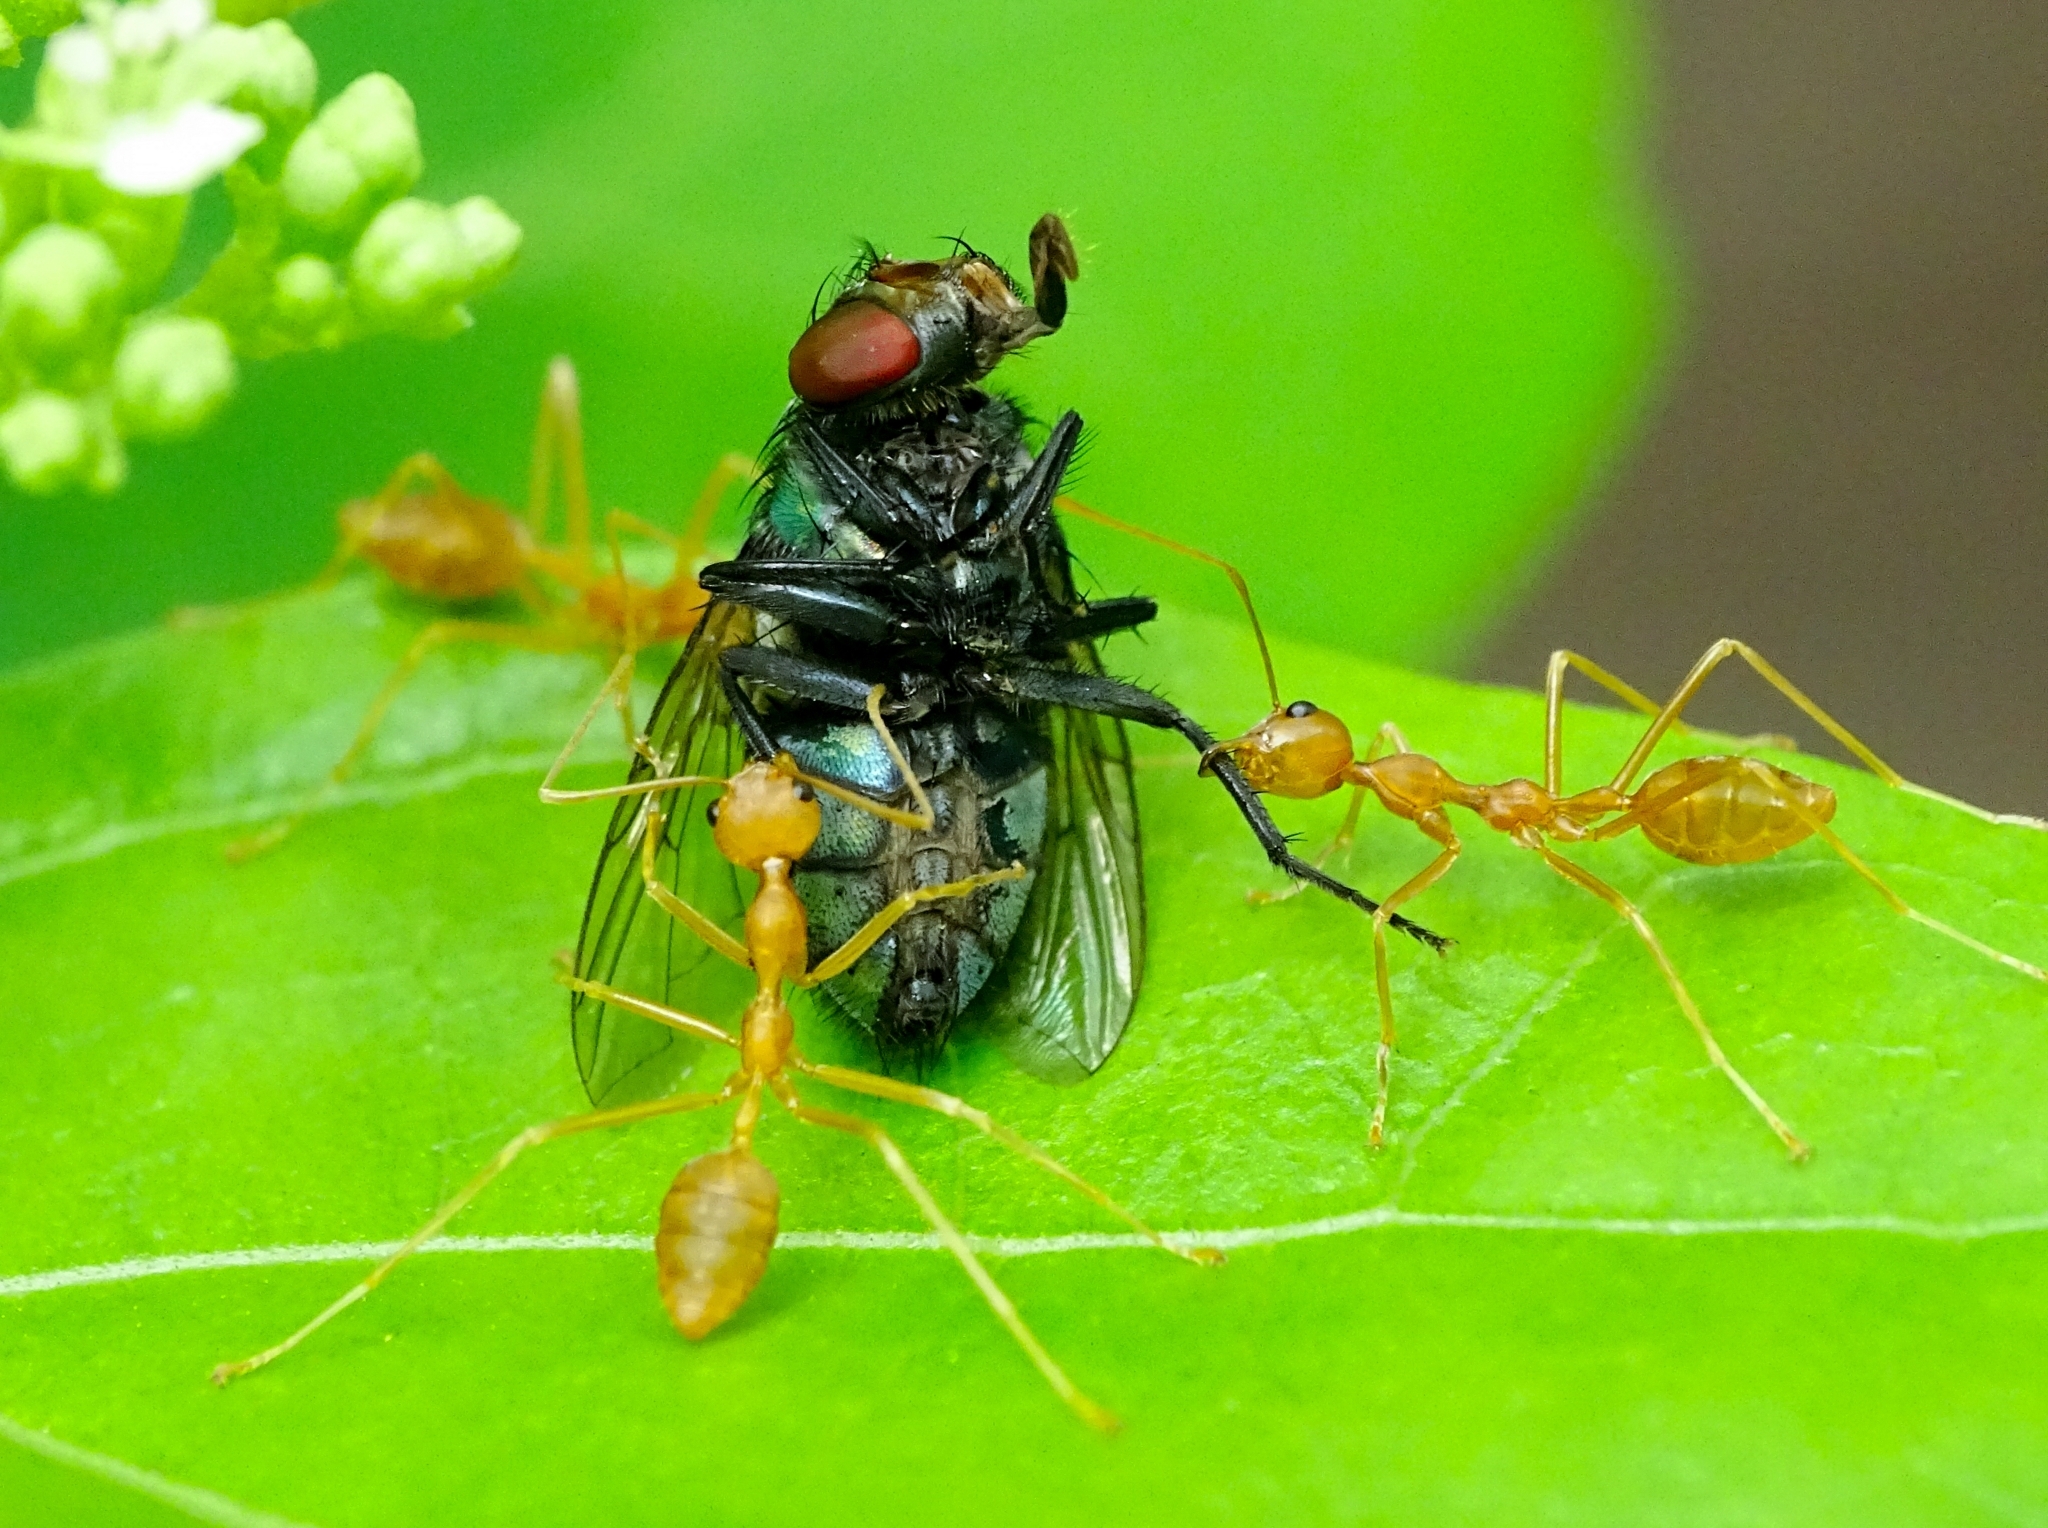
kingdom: Animalia
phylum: Arthropoda
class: Insecta
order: Hymenoptera
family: Formicidae
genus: Oecophylla
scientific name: Oecophylla smaragdina
